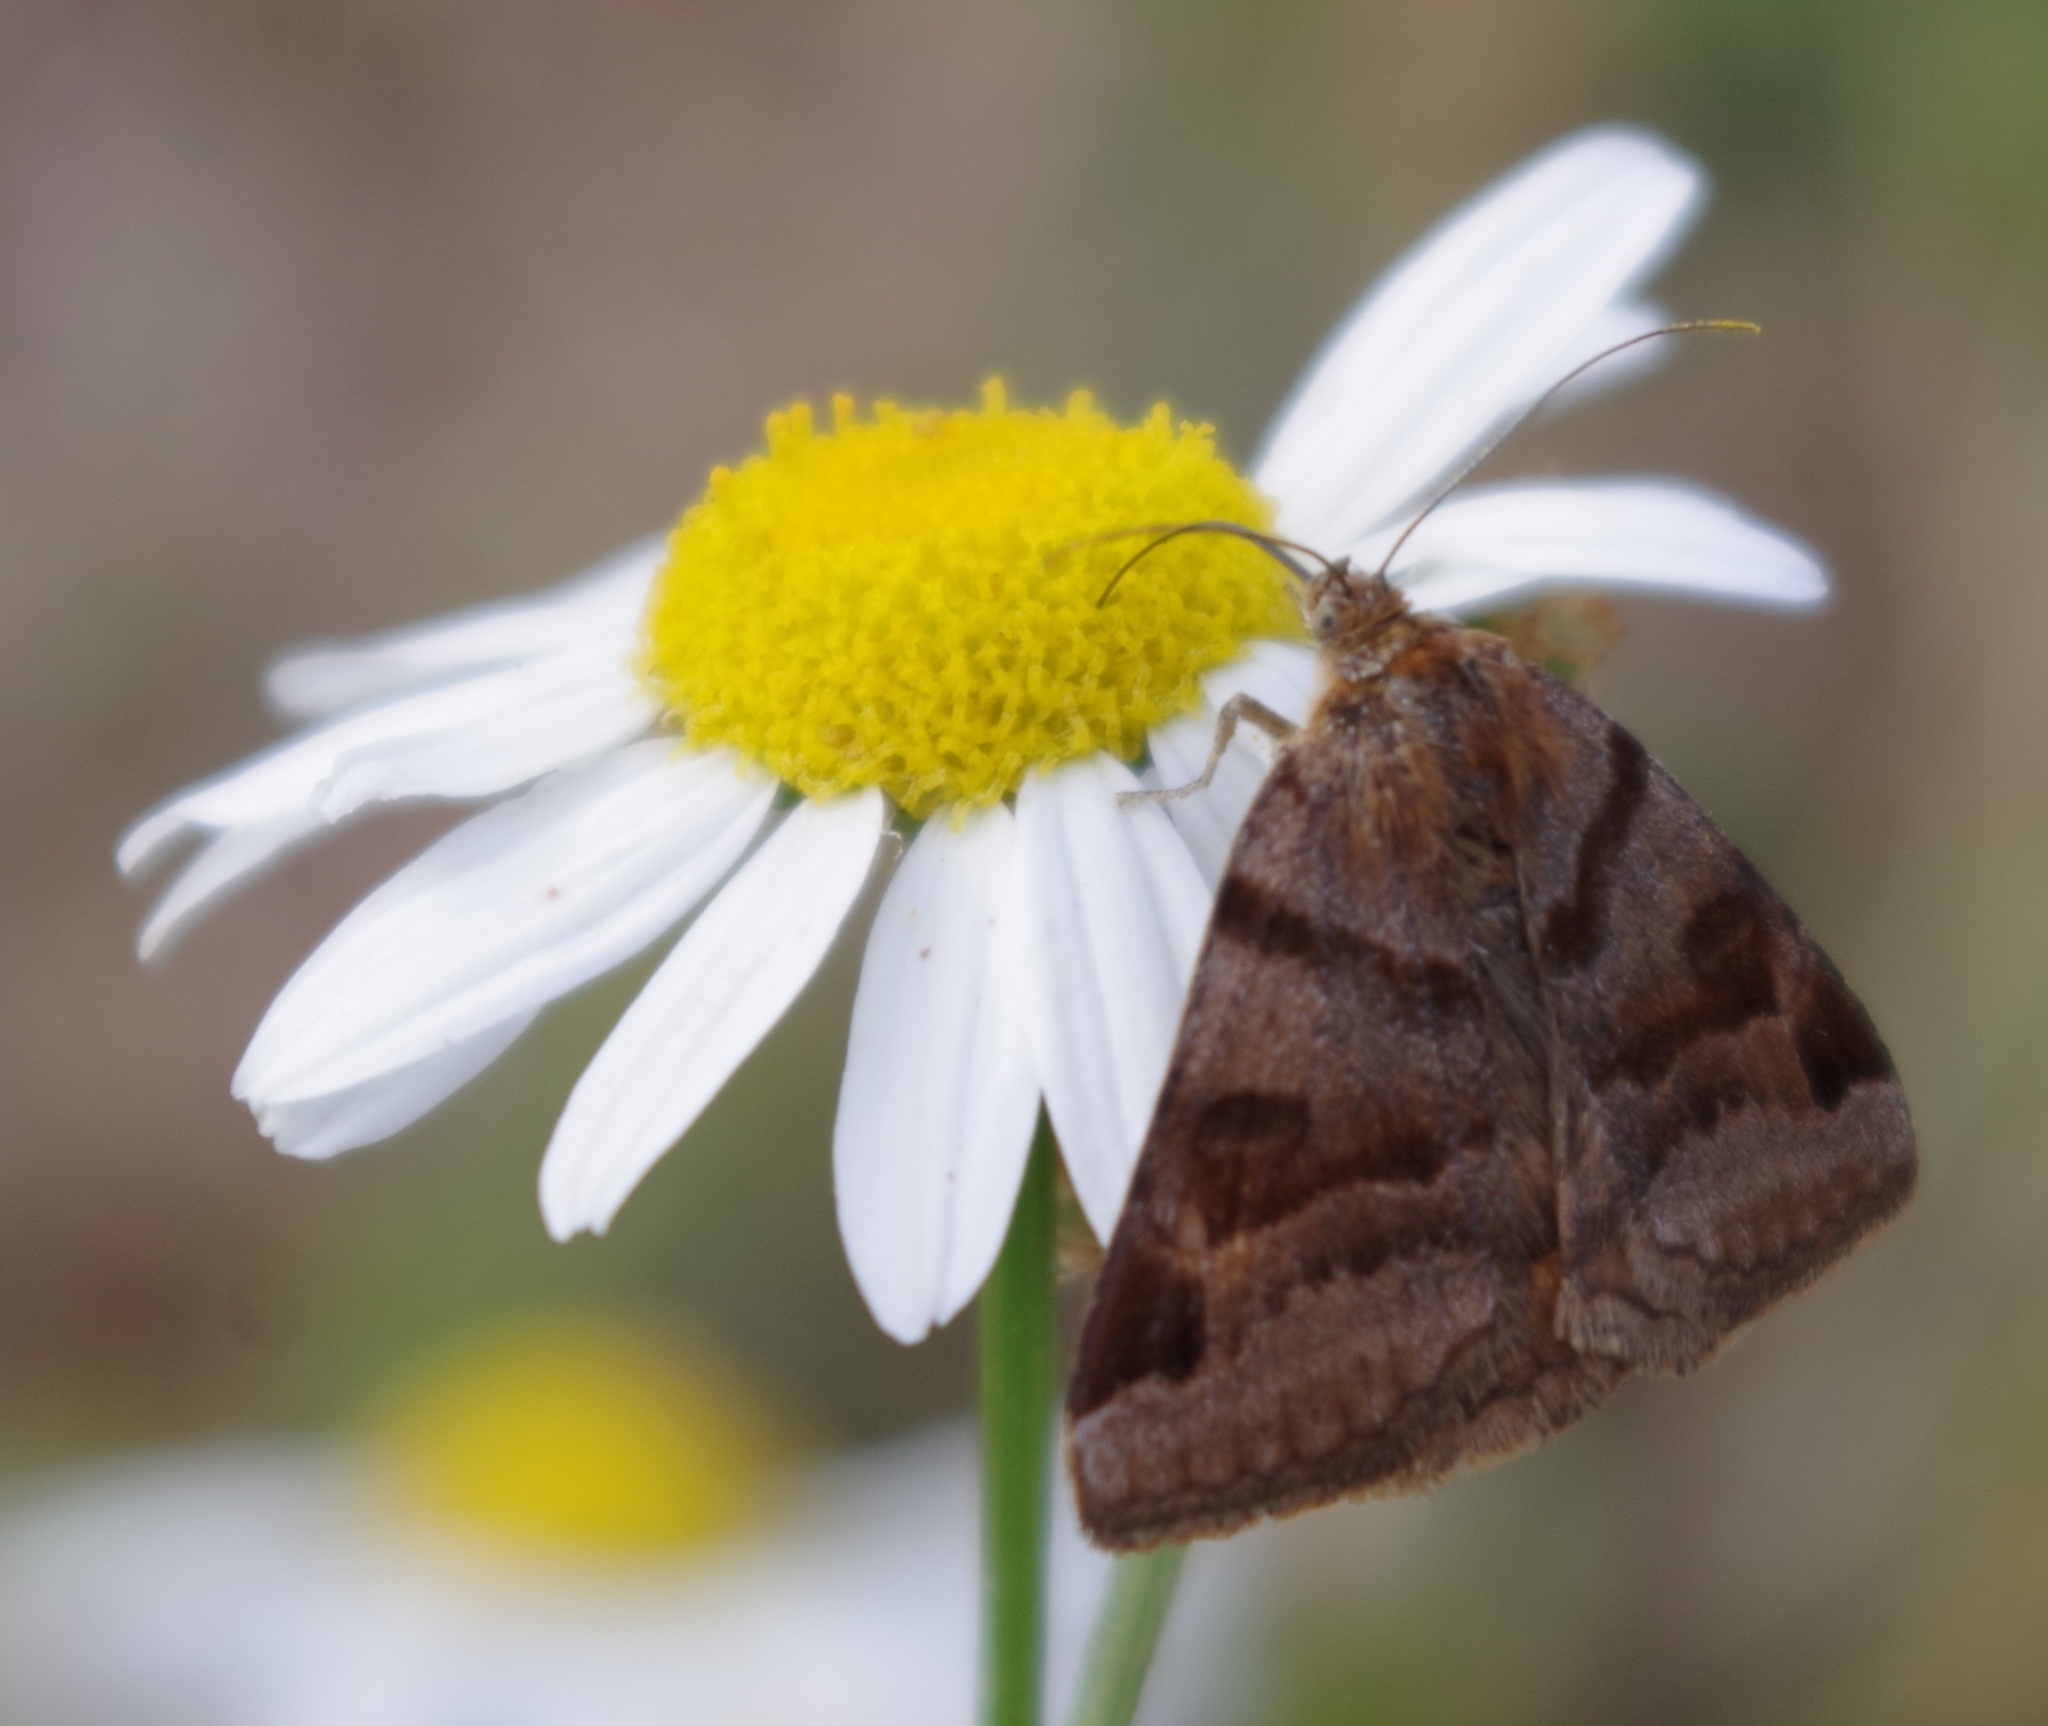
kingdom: Animalia
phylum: Arthropoda
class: Insecta
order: Lepidoptera
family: Erebidae
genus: Euclidia
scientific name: Euclidia glyphica
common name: Burnet companion
